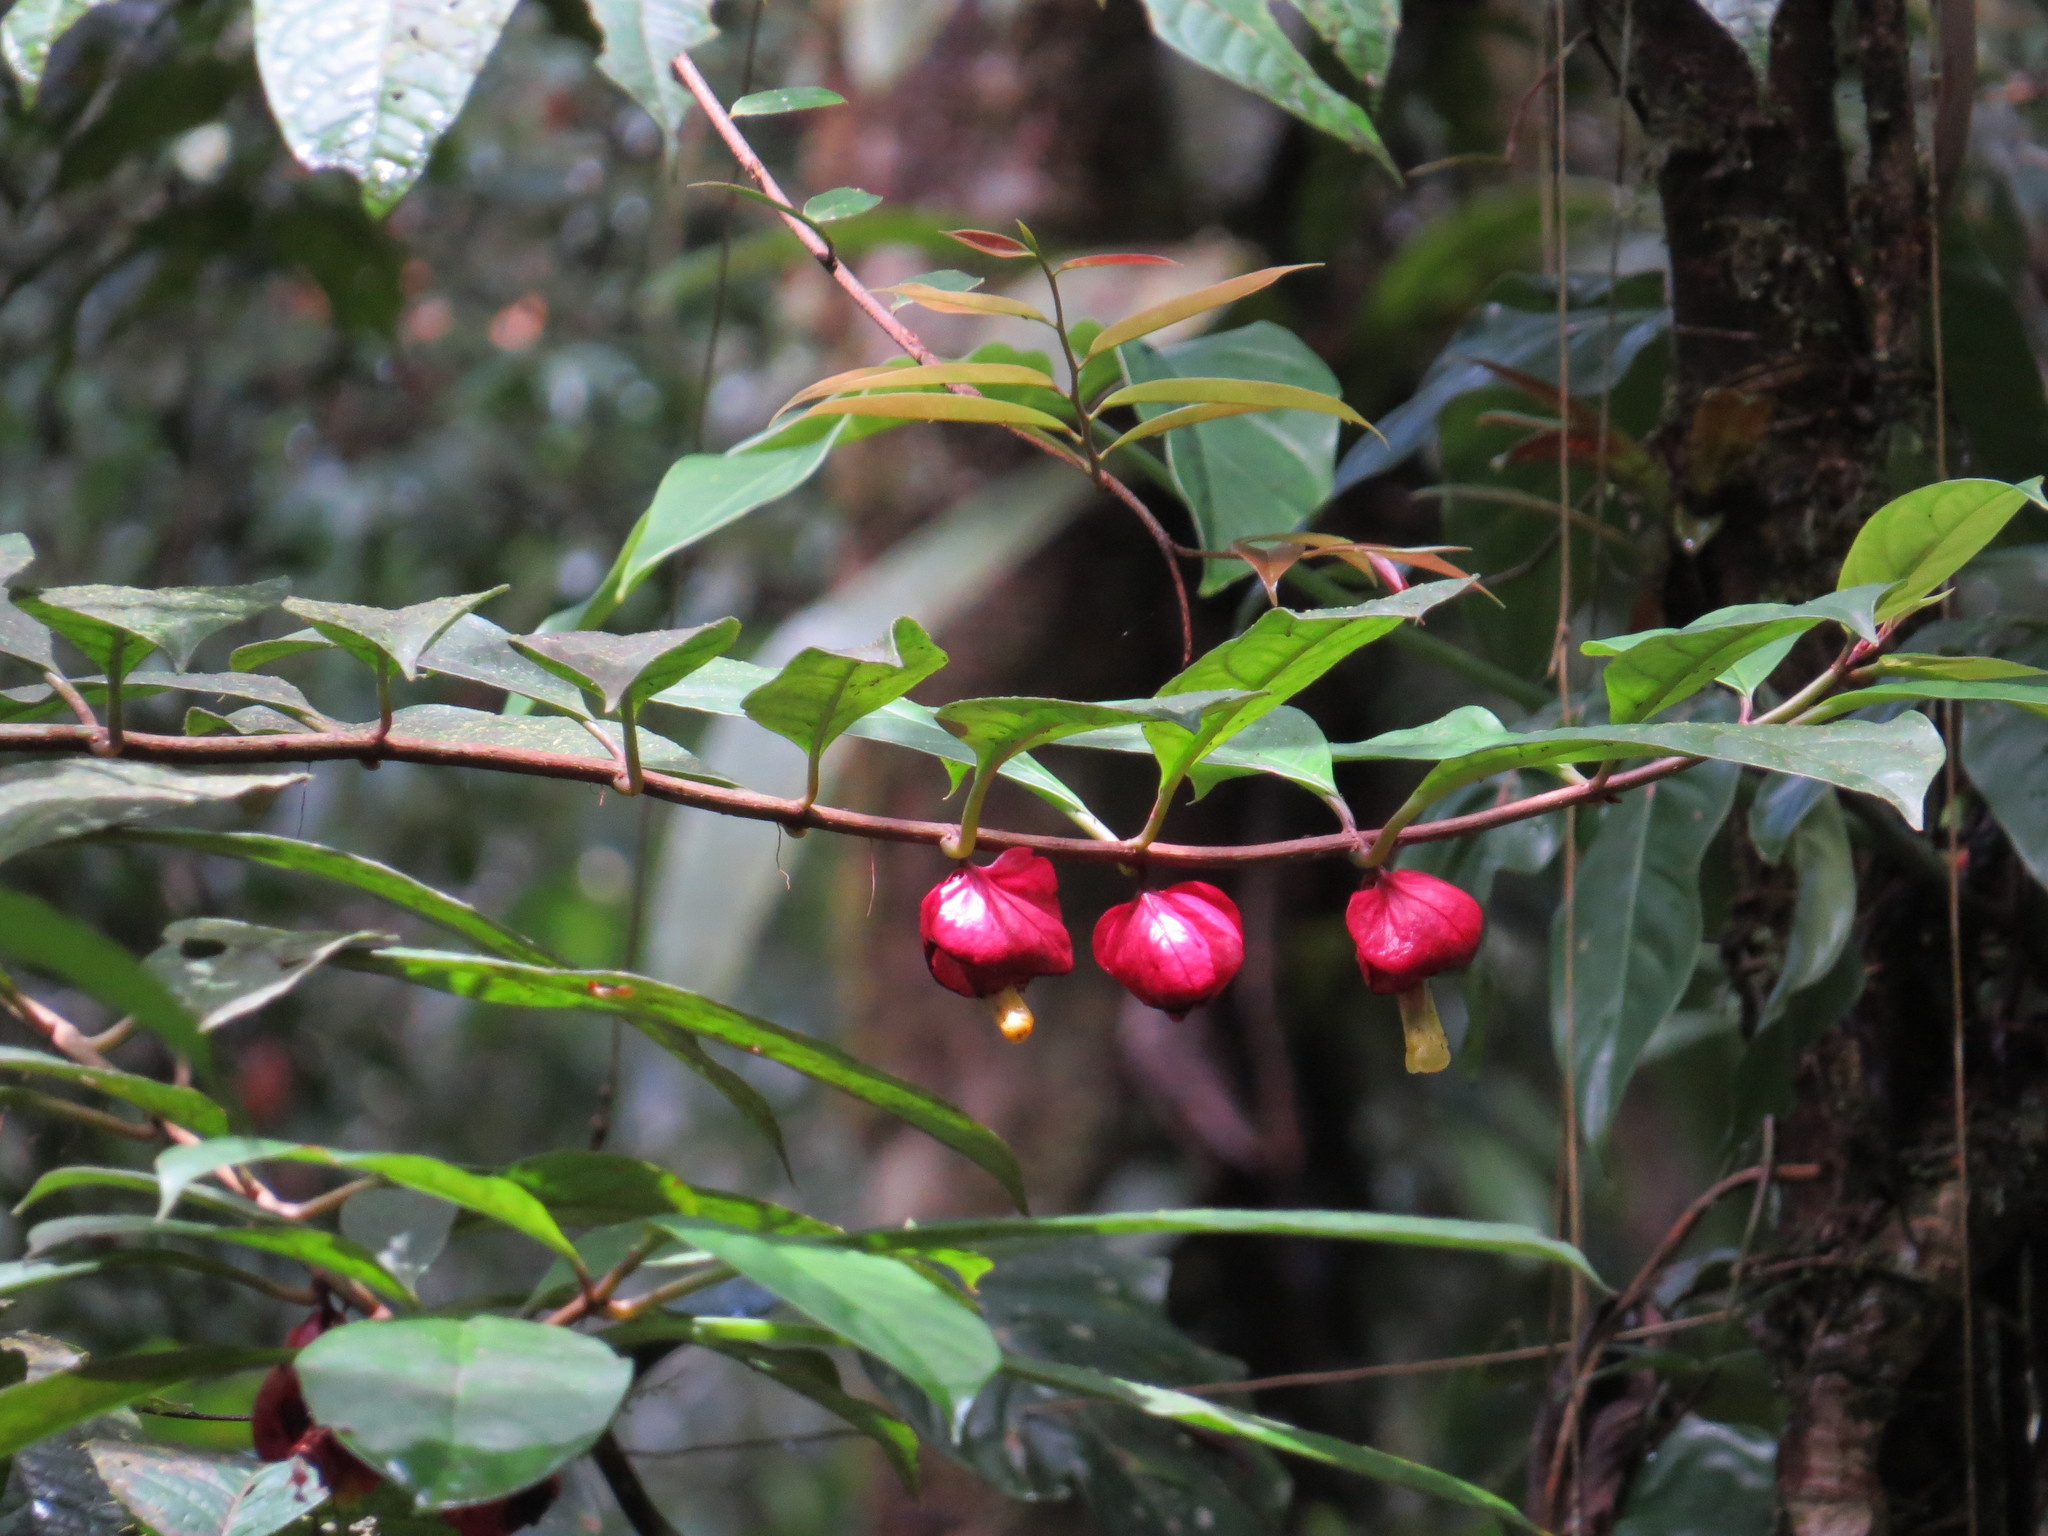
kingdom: Plantae
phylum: Tracheophyta
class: Magnoliopsida
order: Lamiales
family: Gesneriaceae
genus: Drymonia
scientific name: Drymonia coccinea
